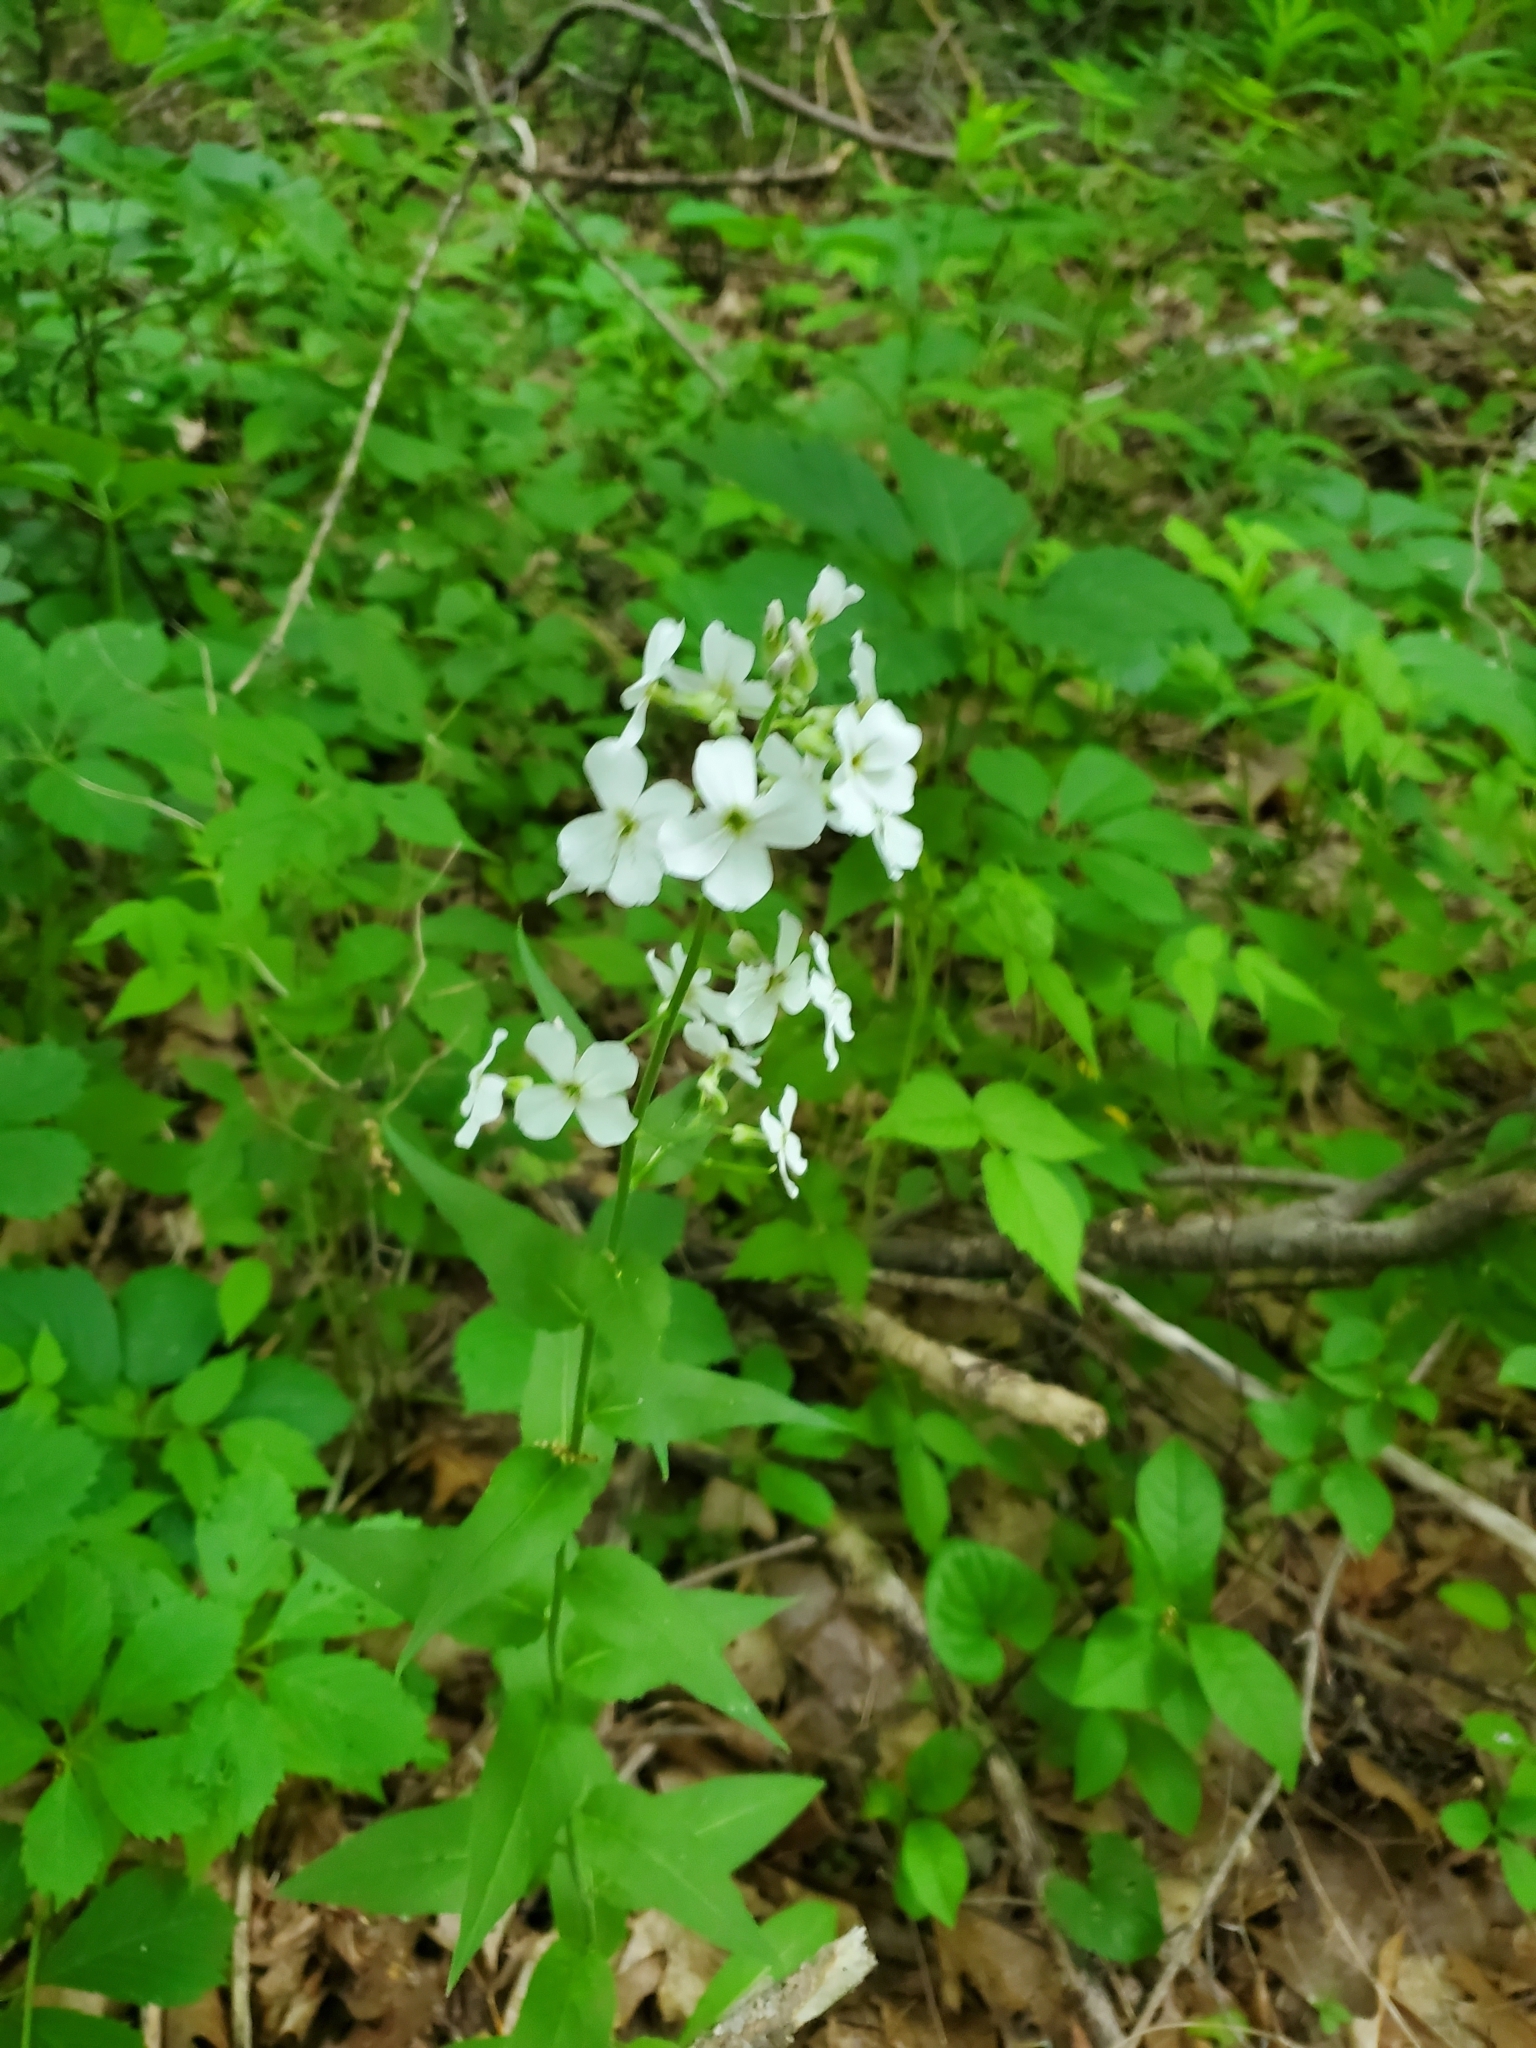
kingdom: Plantae
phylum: Tracheophyta
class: Magnoliopsida
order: Brassicales
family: Brassicaceae
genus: Hesperis
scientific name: Hesperis matronalis
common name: Dame's-violet
